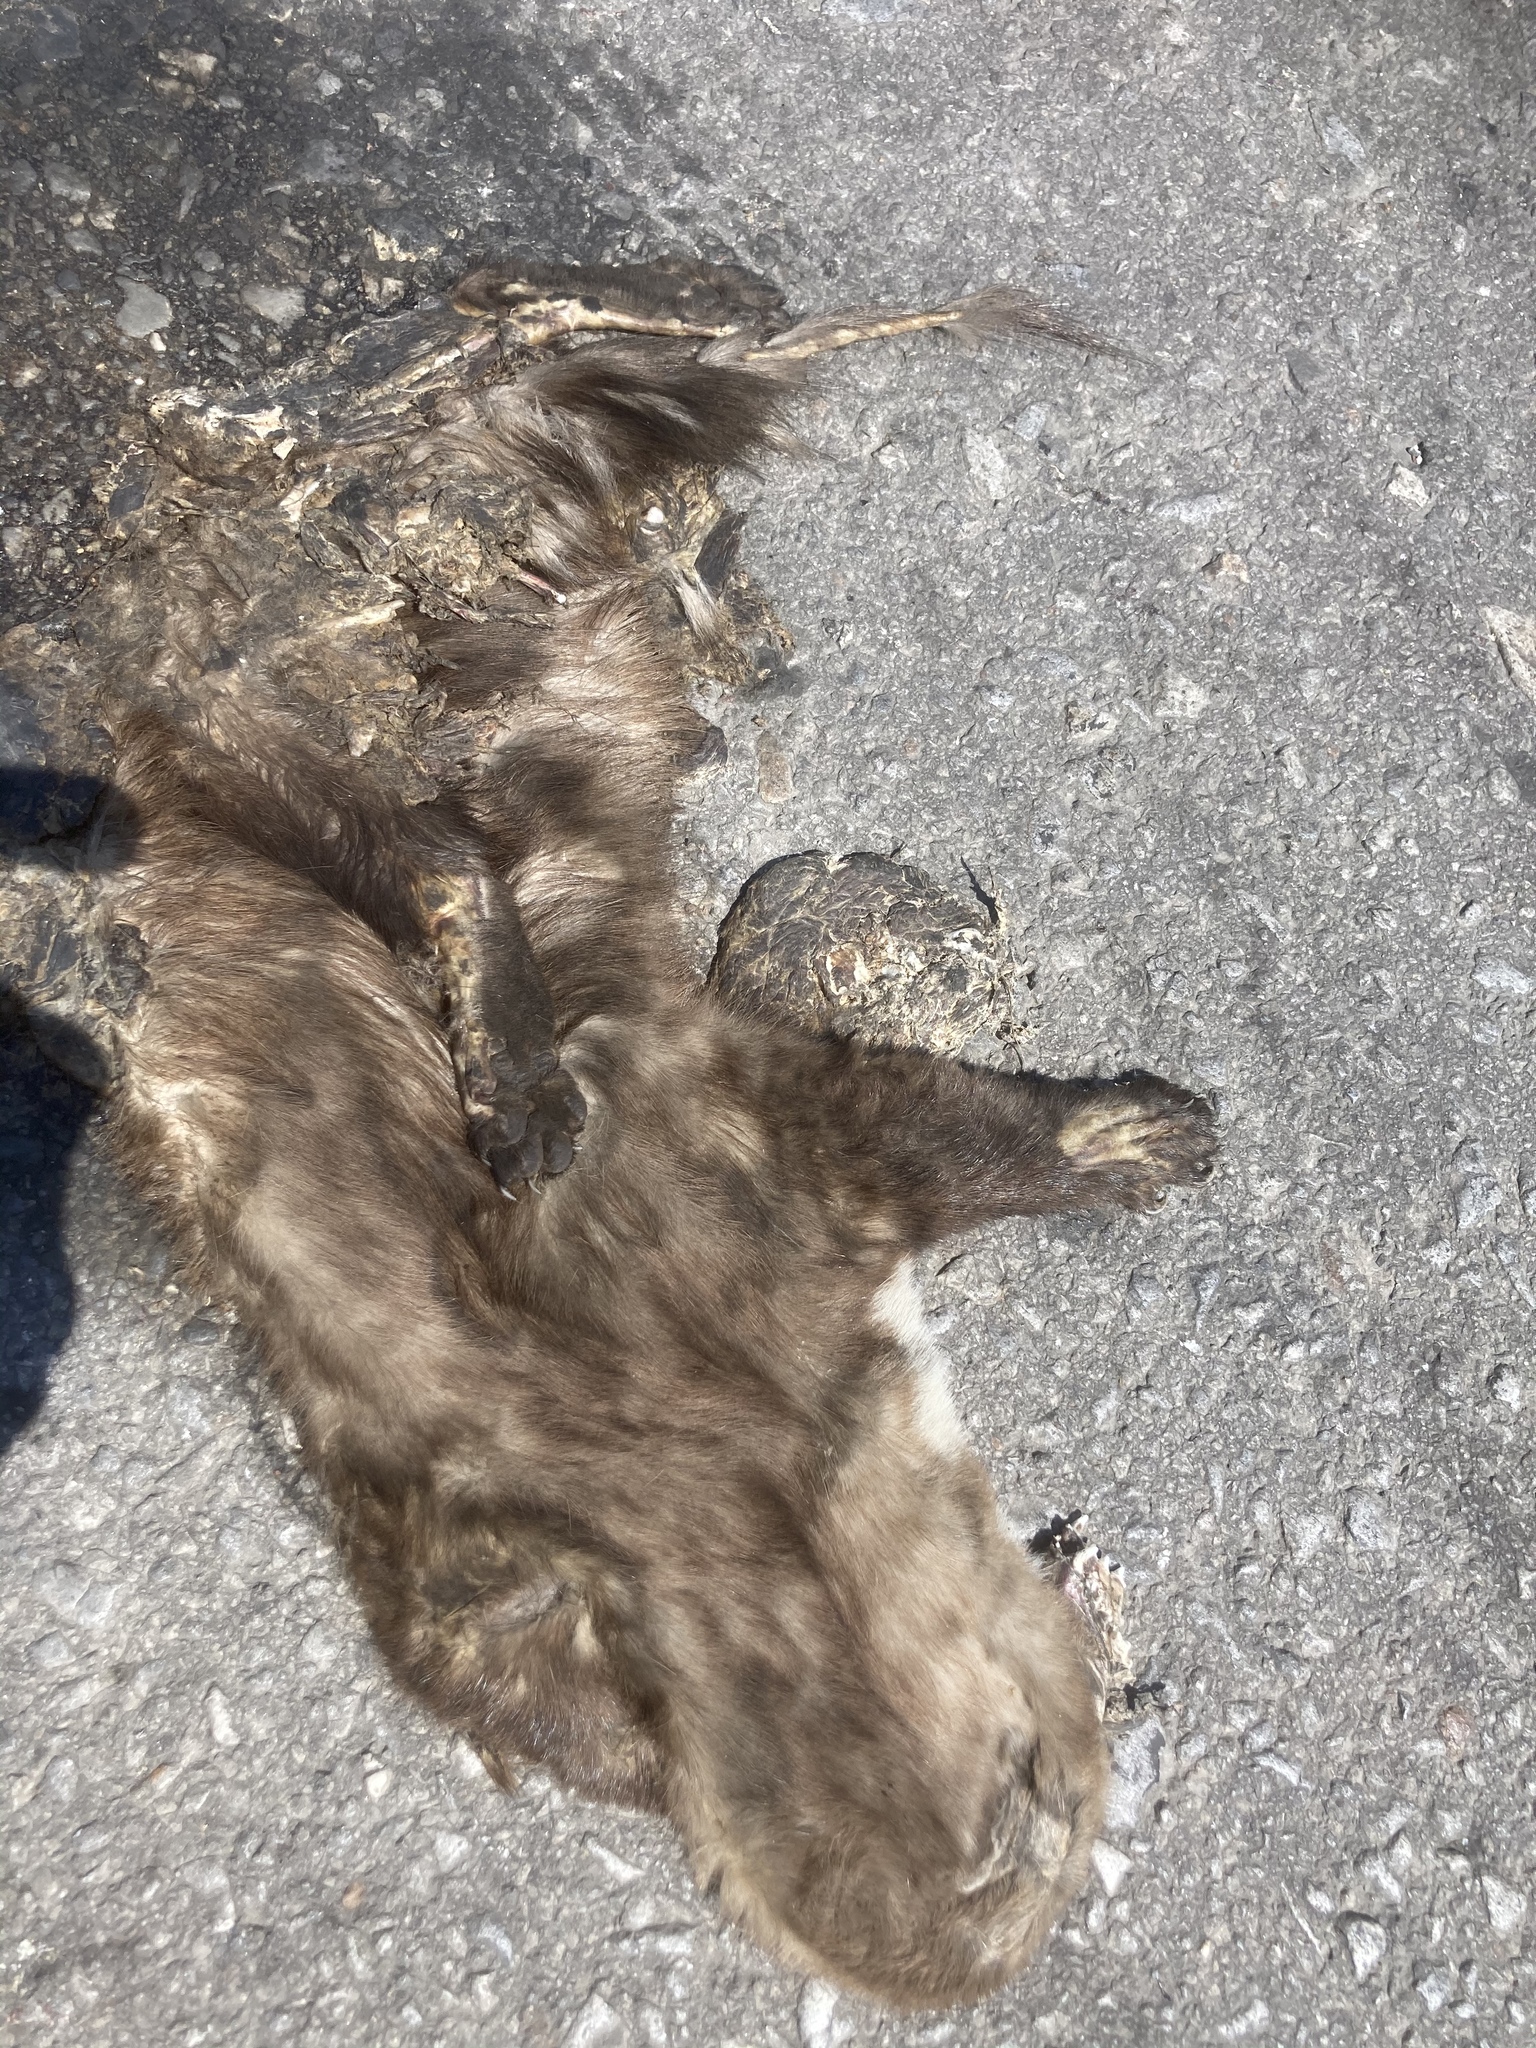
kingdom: Animalia
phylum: Chordata
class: Mammalia
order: Carnivora
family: Mustelidae
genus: Martes
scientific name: Martes foina
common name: Beech marten
